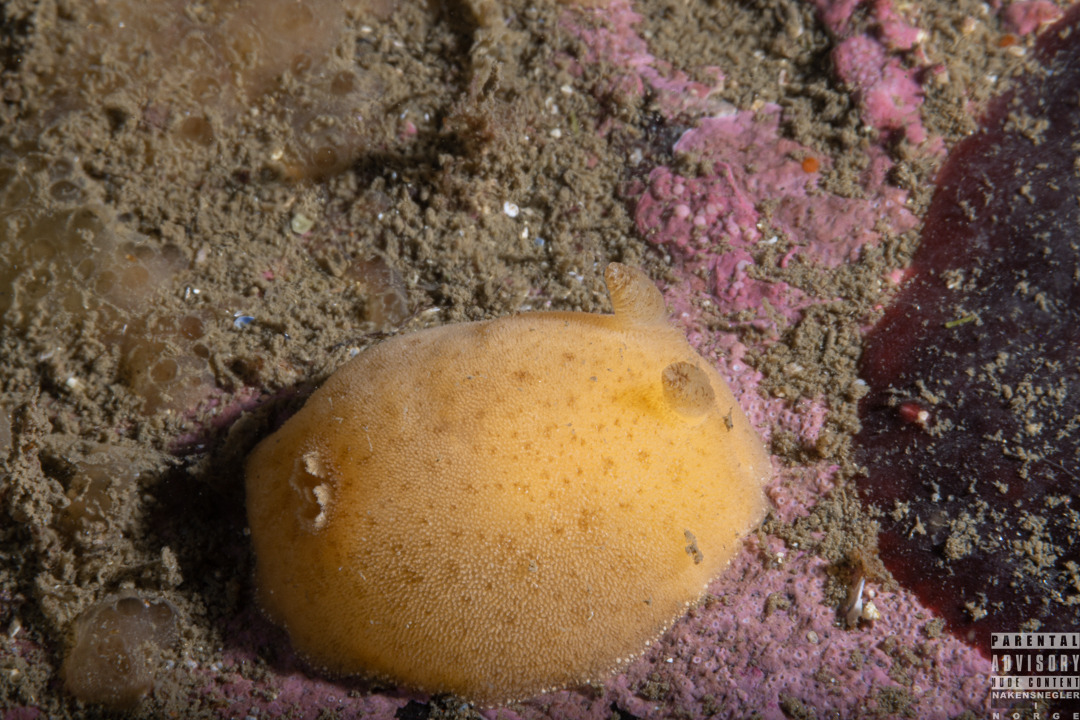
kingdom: Animalia
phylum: Mollusca
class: Gastropoda
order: Nudibranchia
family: Discodorididae
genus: Jorunna
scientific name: Jorunna tomentosa
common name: Grey sea slug
